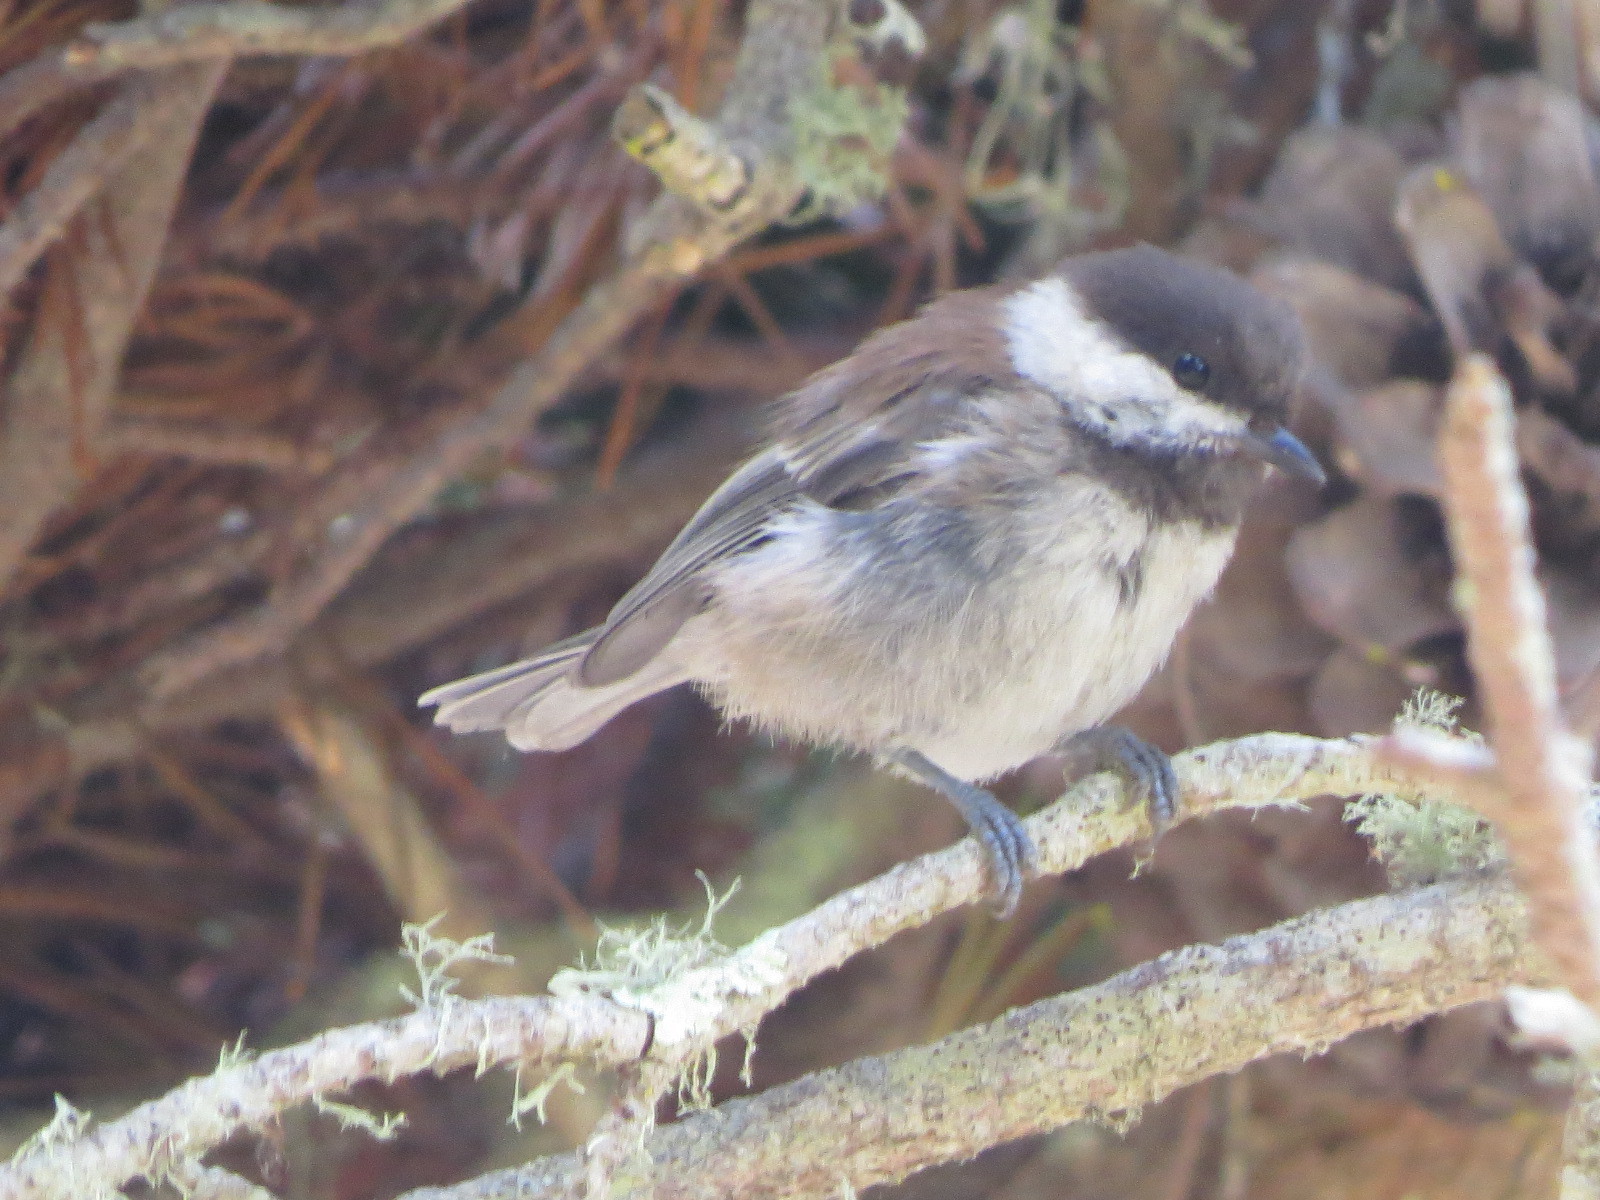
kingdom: Animalia
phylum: Chordata
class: Aves
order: Passeriformes
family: Paridae
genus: Poecile
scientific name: Poecile rufescens
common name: Chestnut-backed chickadee
